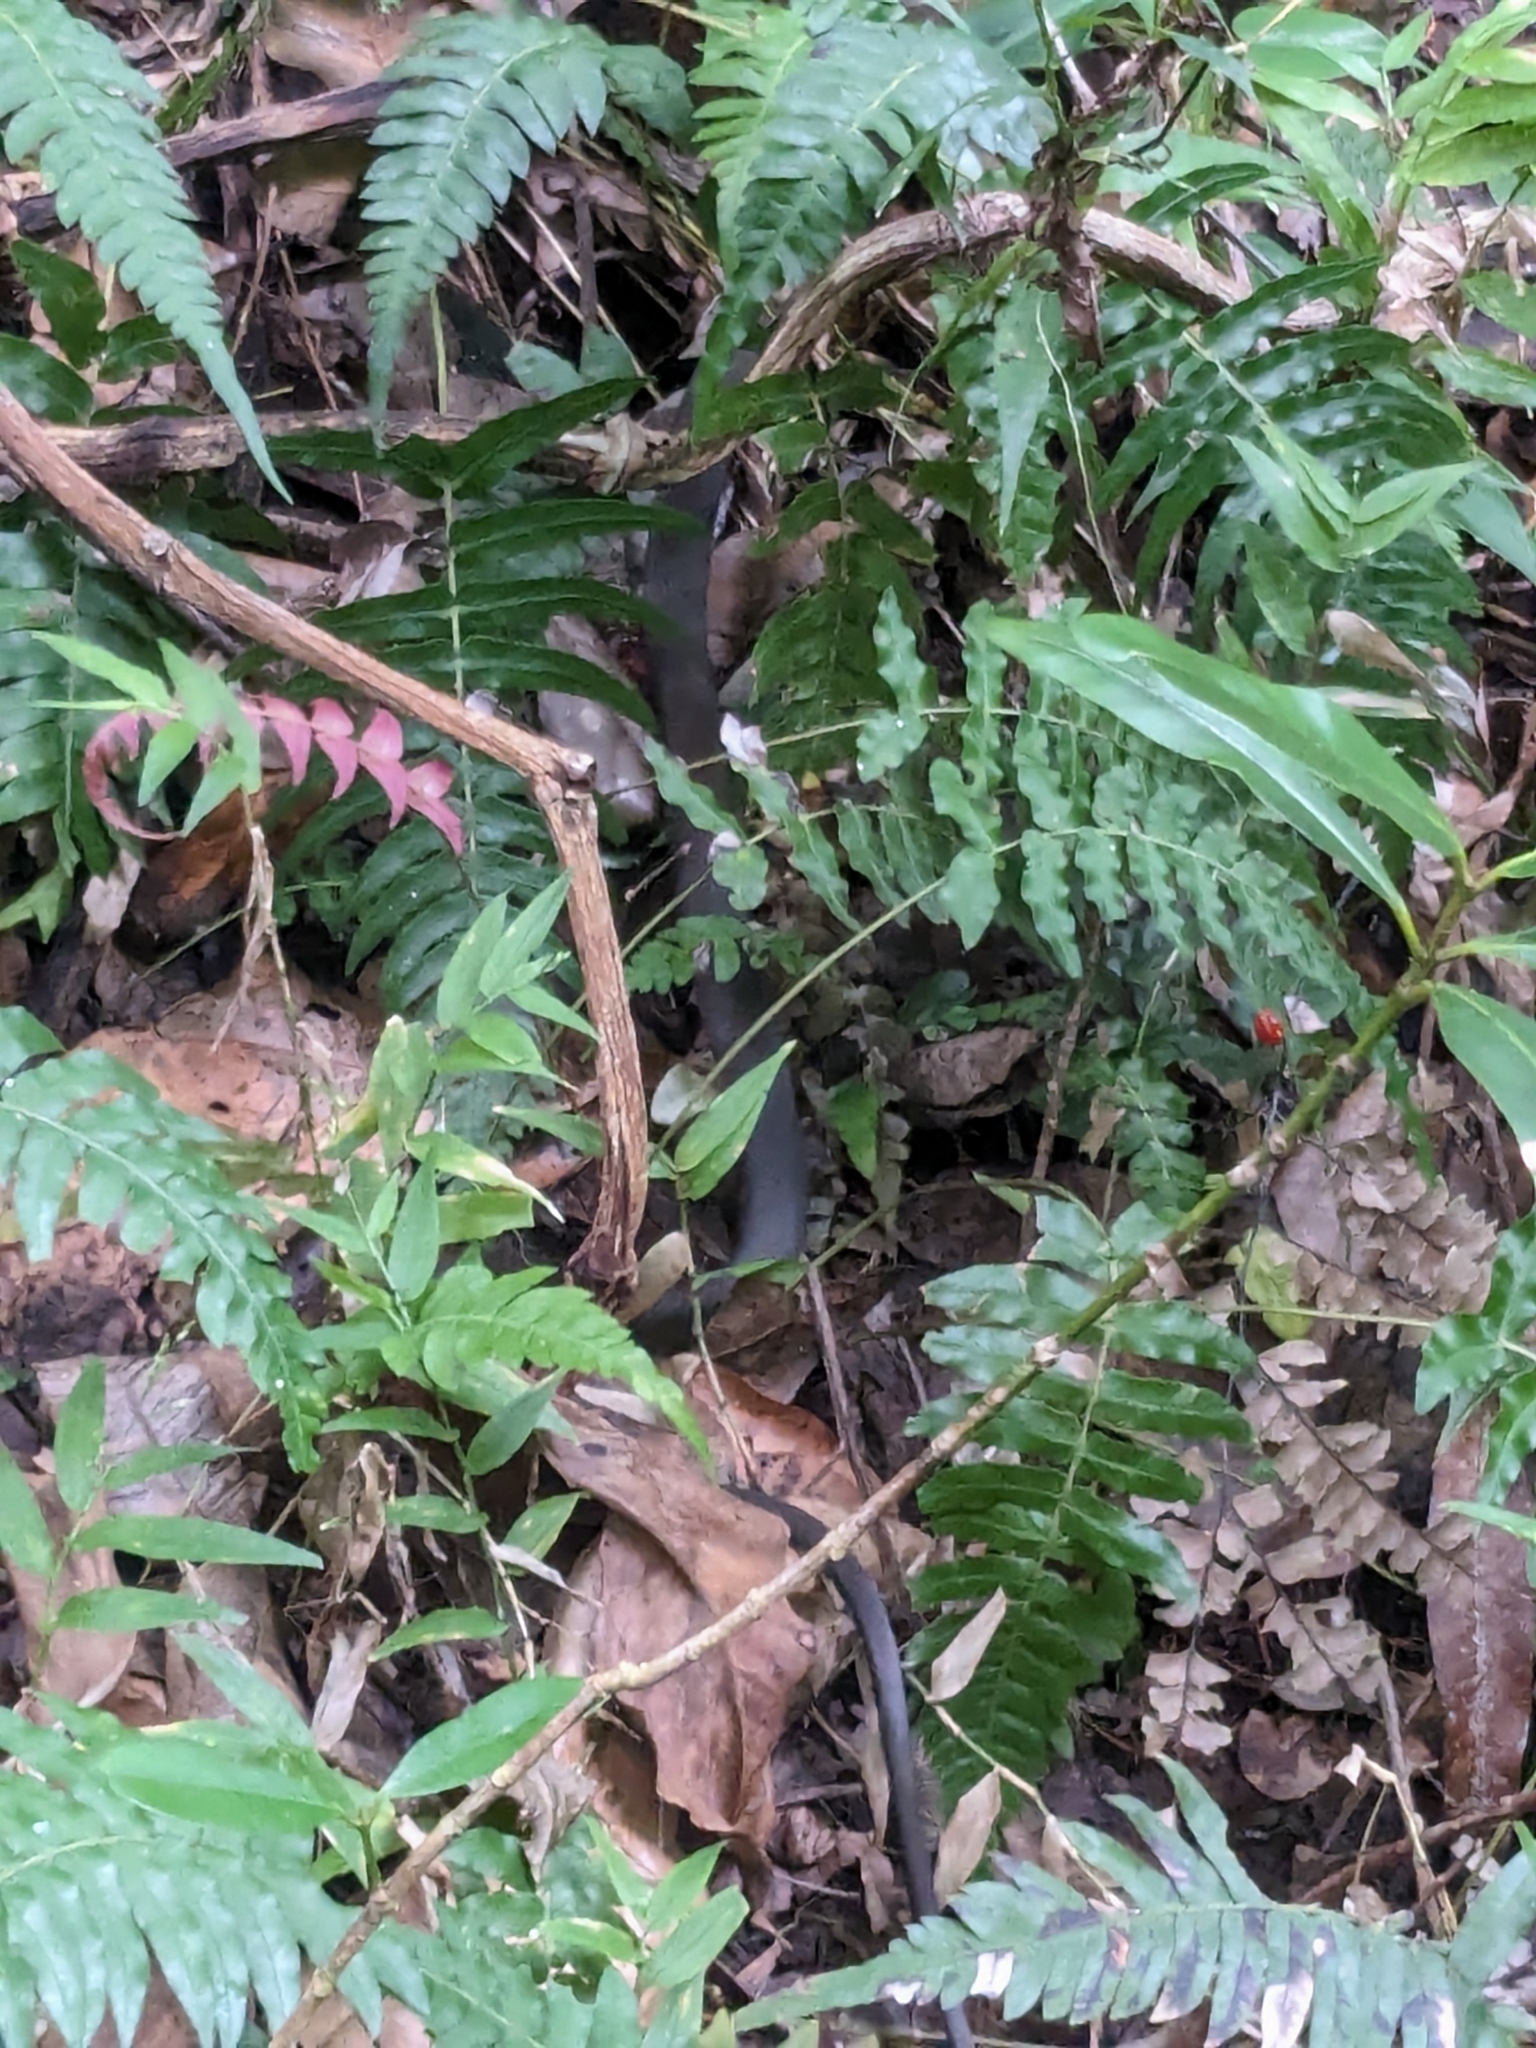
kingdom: Animalia
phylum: Chordata
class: Squamata
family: Colubridae
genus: Borikenophis
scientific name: Borikenophis portoricensis
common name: Puerto rican racer
